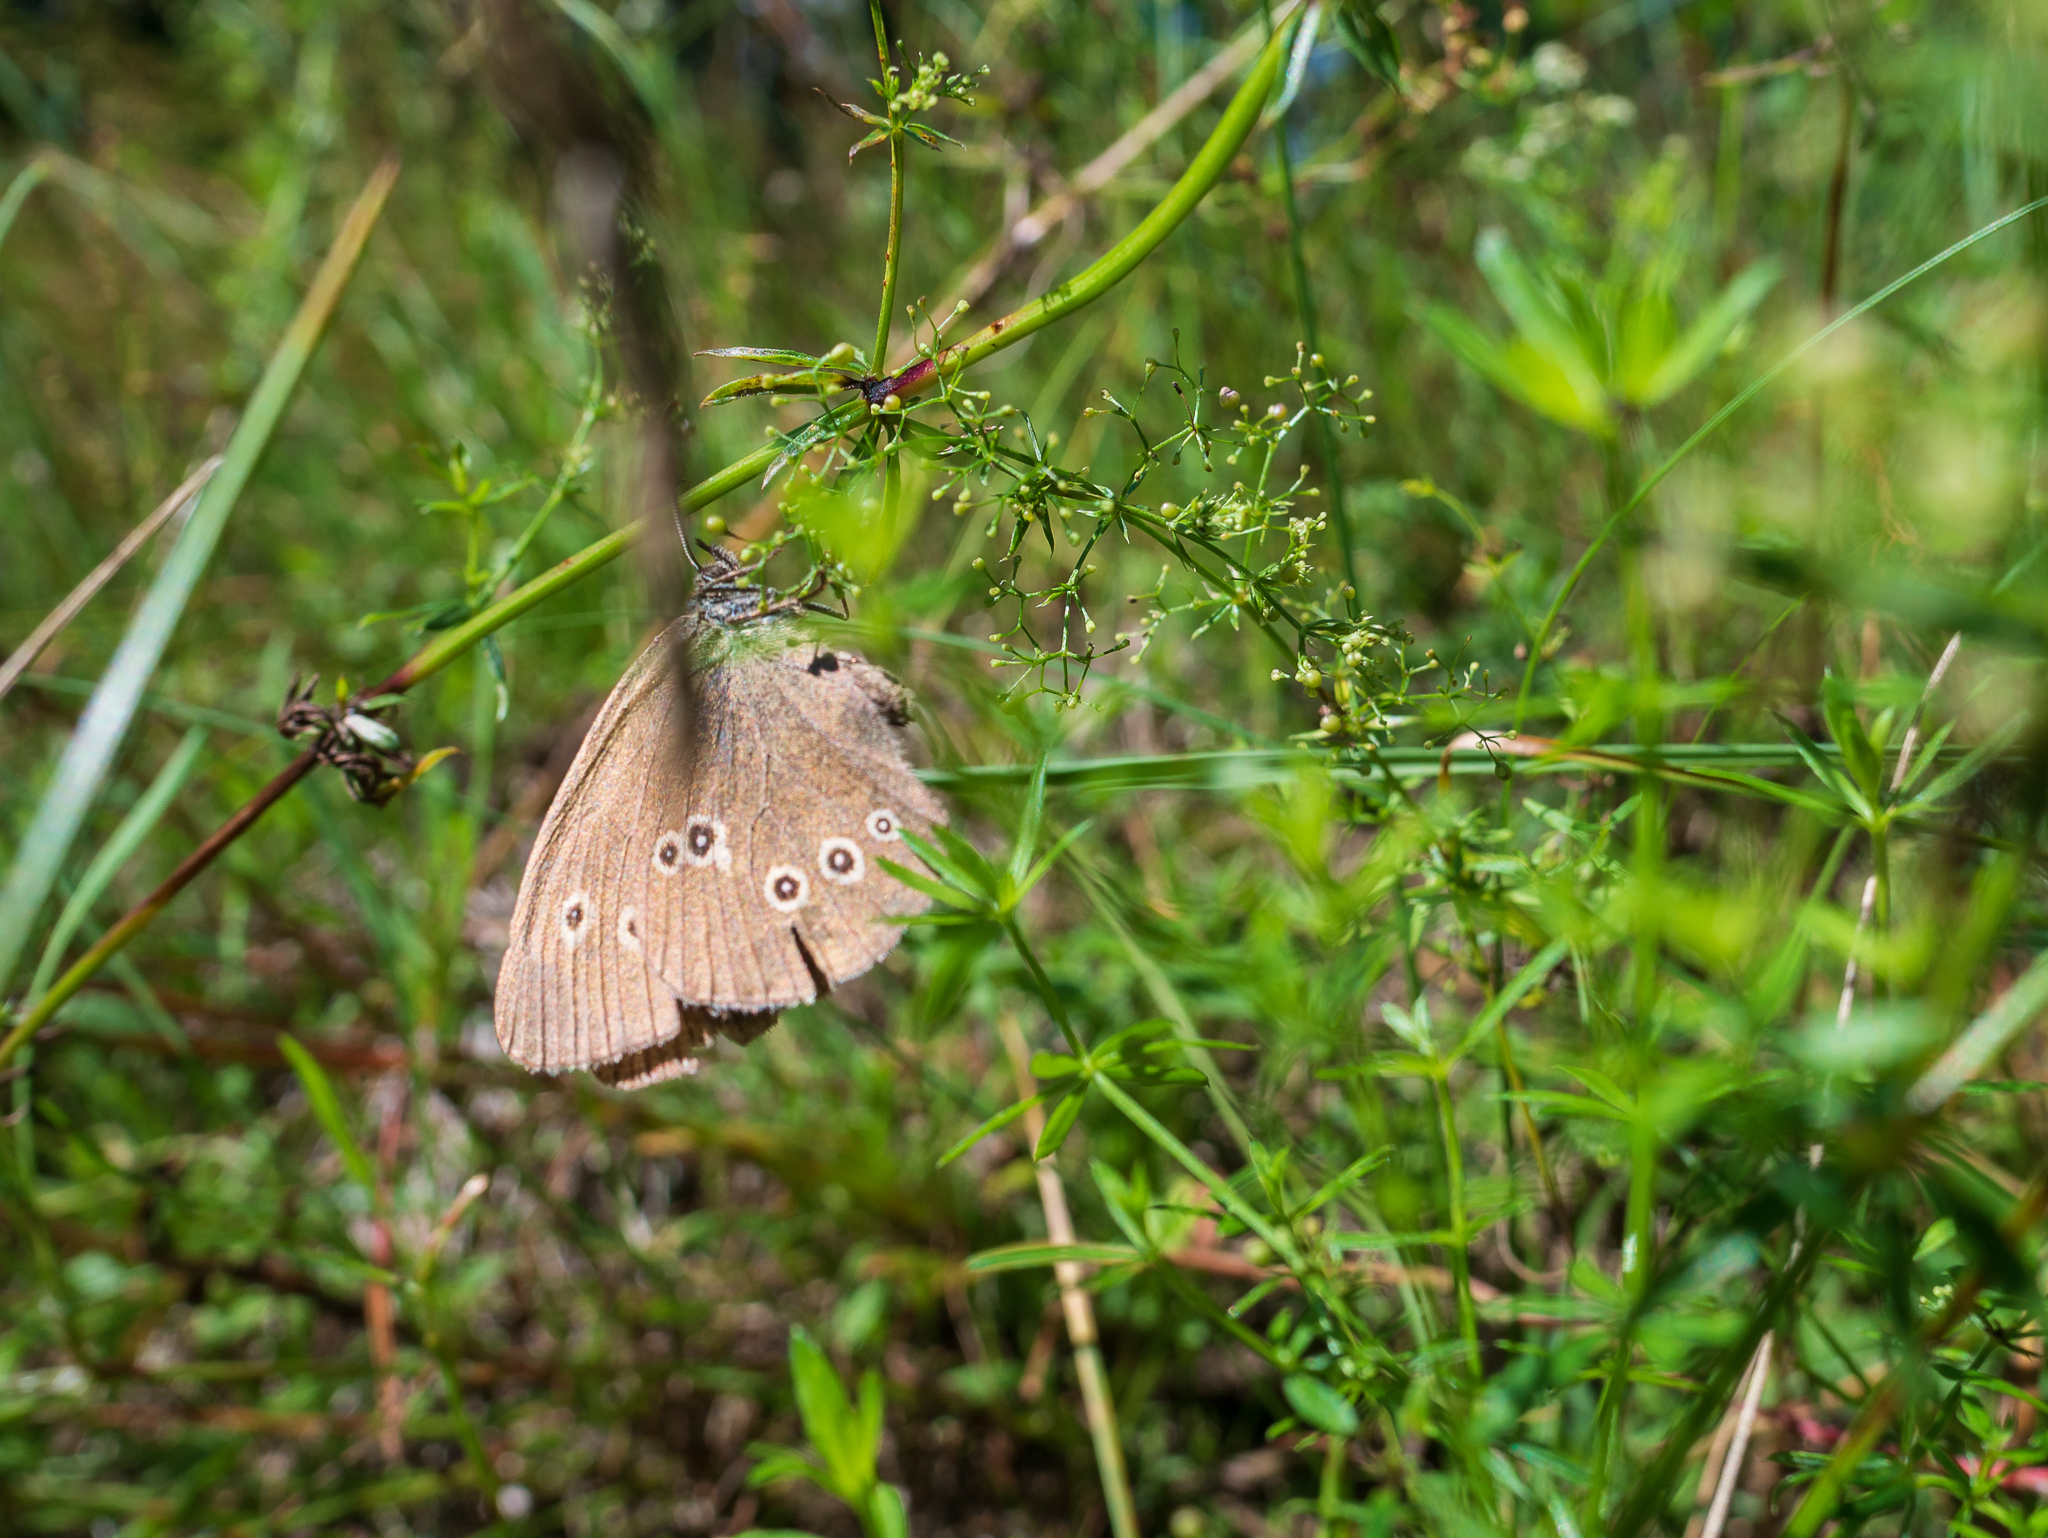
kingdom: Animalia
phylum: Arthropoda
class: Insecta
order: Lepidoptera
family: Nymphalidae
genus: Aphantopus
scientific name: Aphantopus hyperantus
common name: Ringlet
